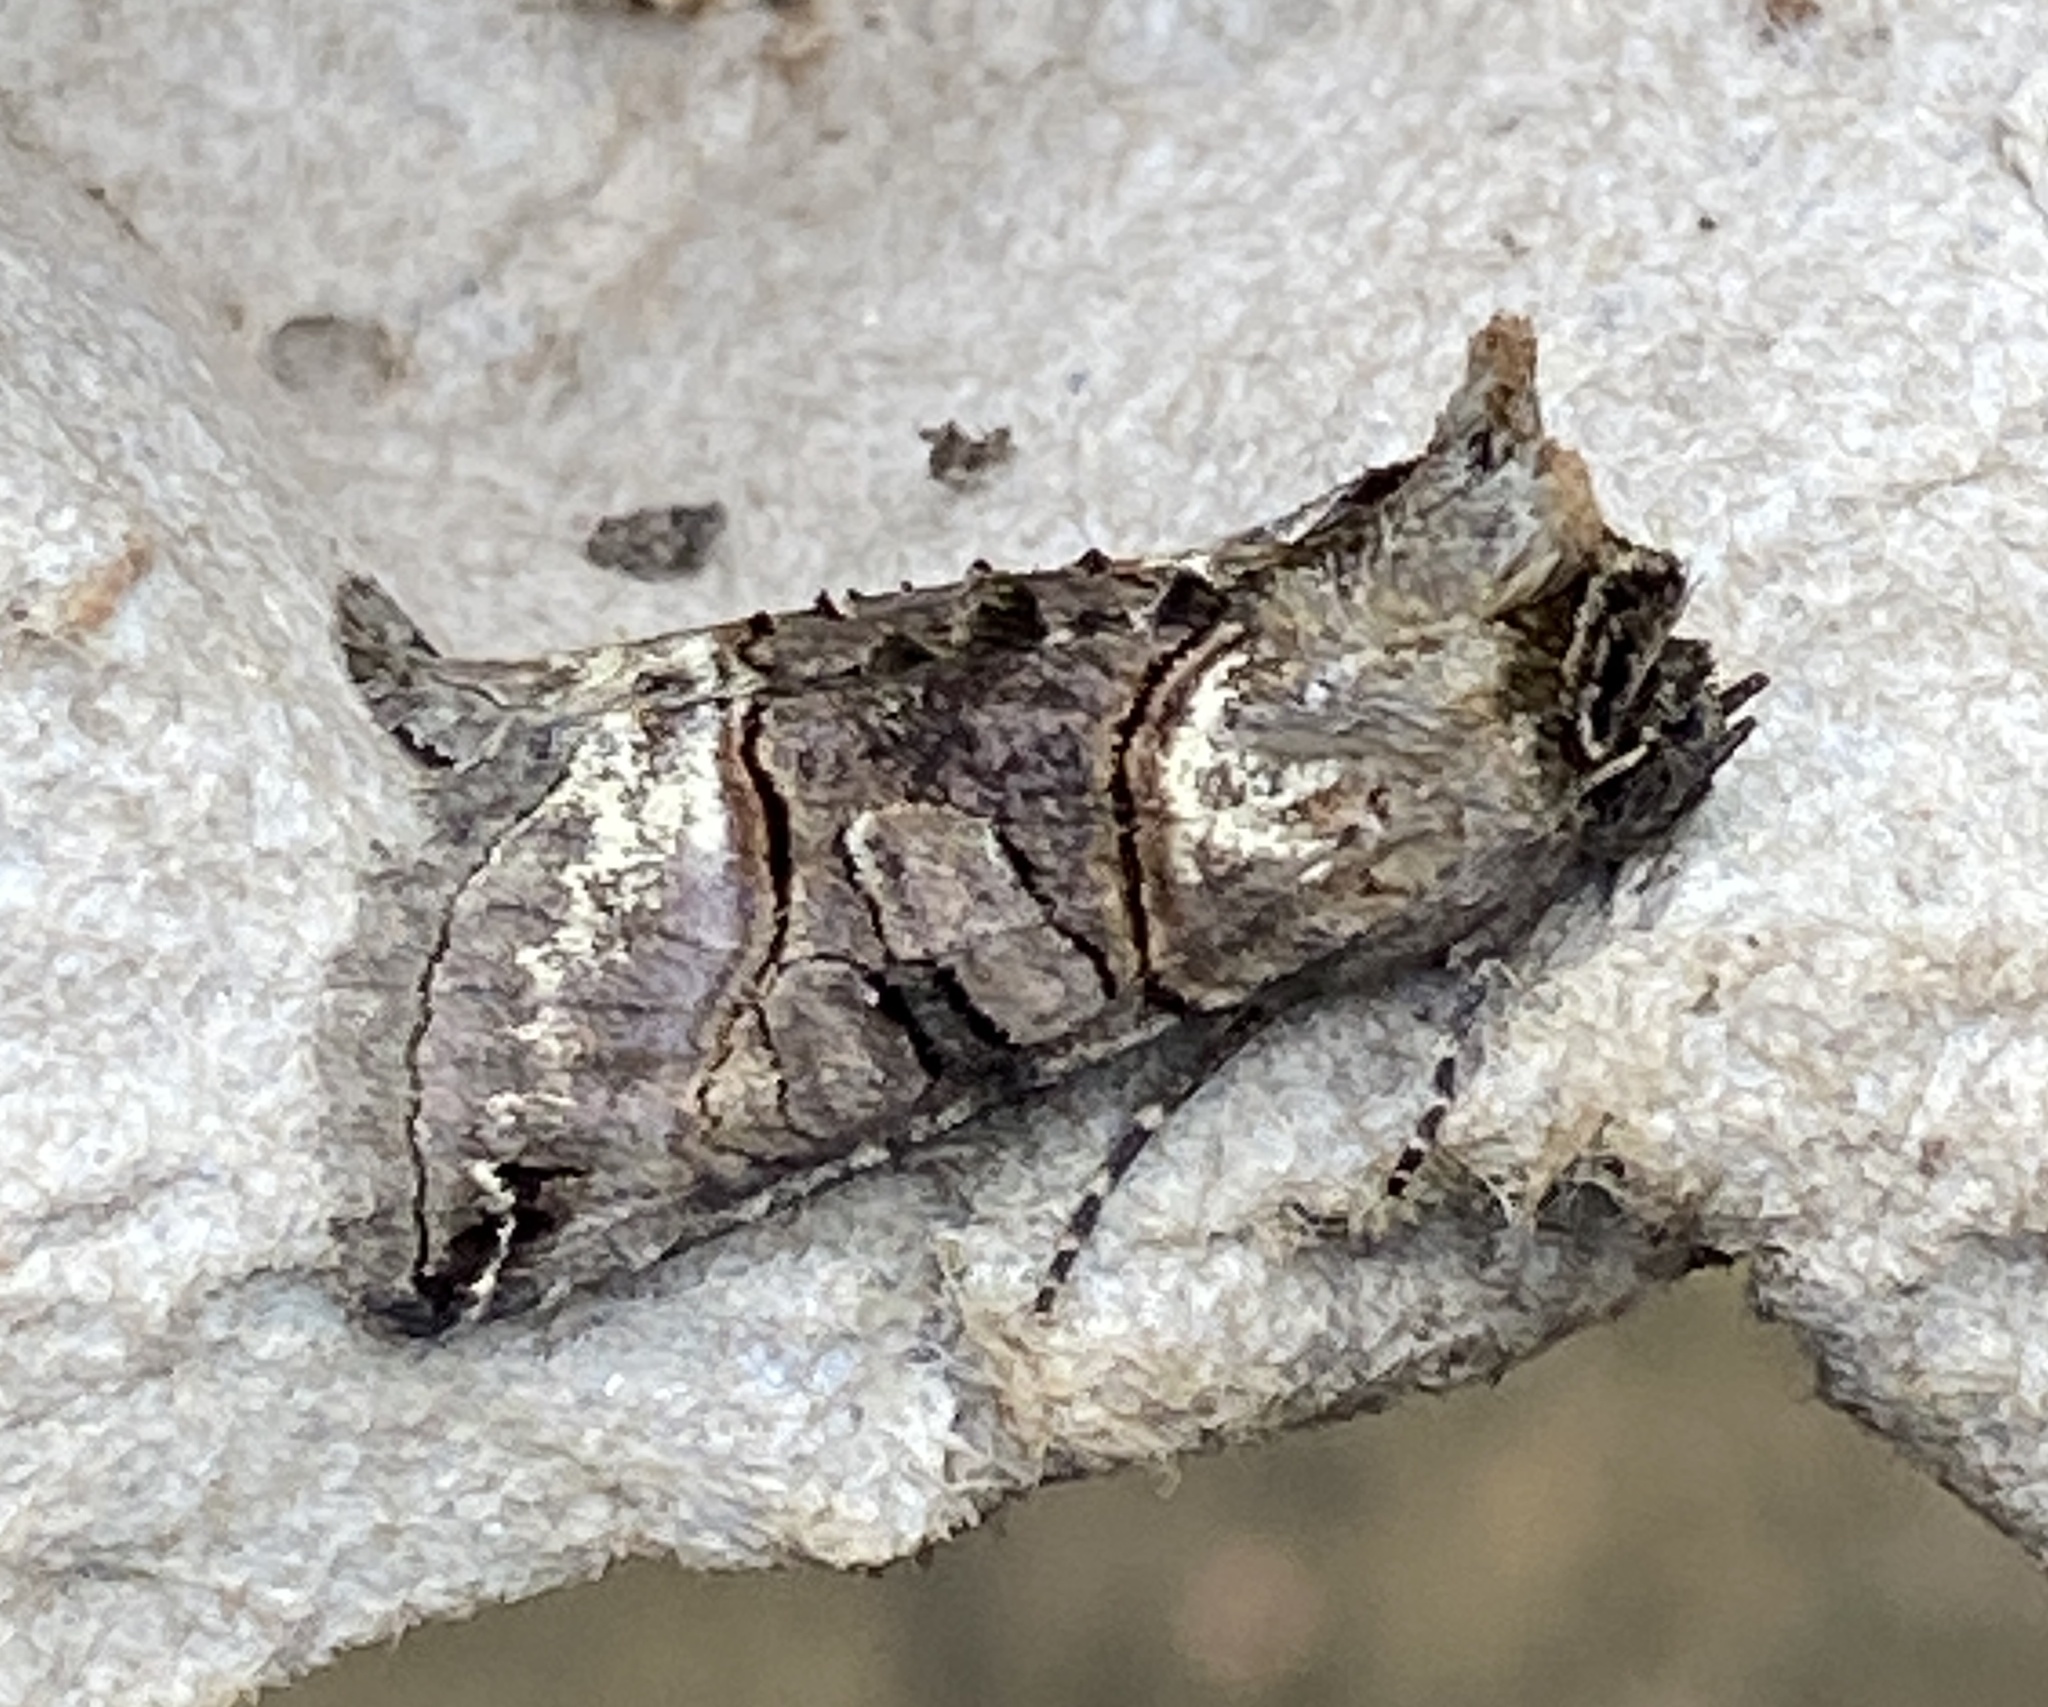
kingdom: Animalia
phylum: Arthropoda
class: Insecta
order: Lepidoptera
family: Noctuidae
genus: Abrostola
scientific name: Abrostola tripartita
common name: Spectacle
